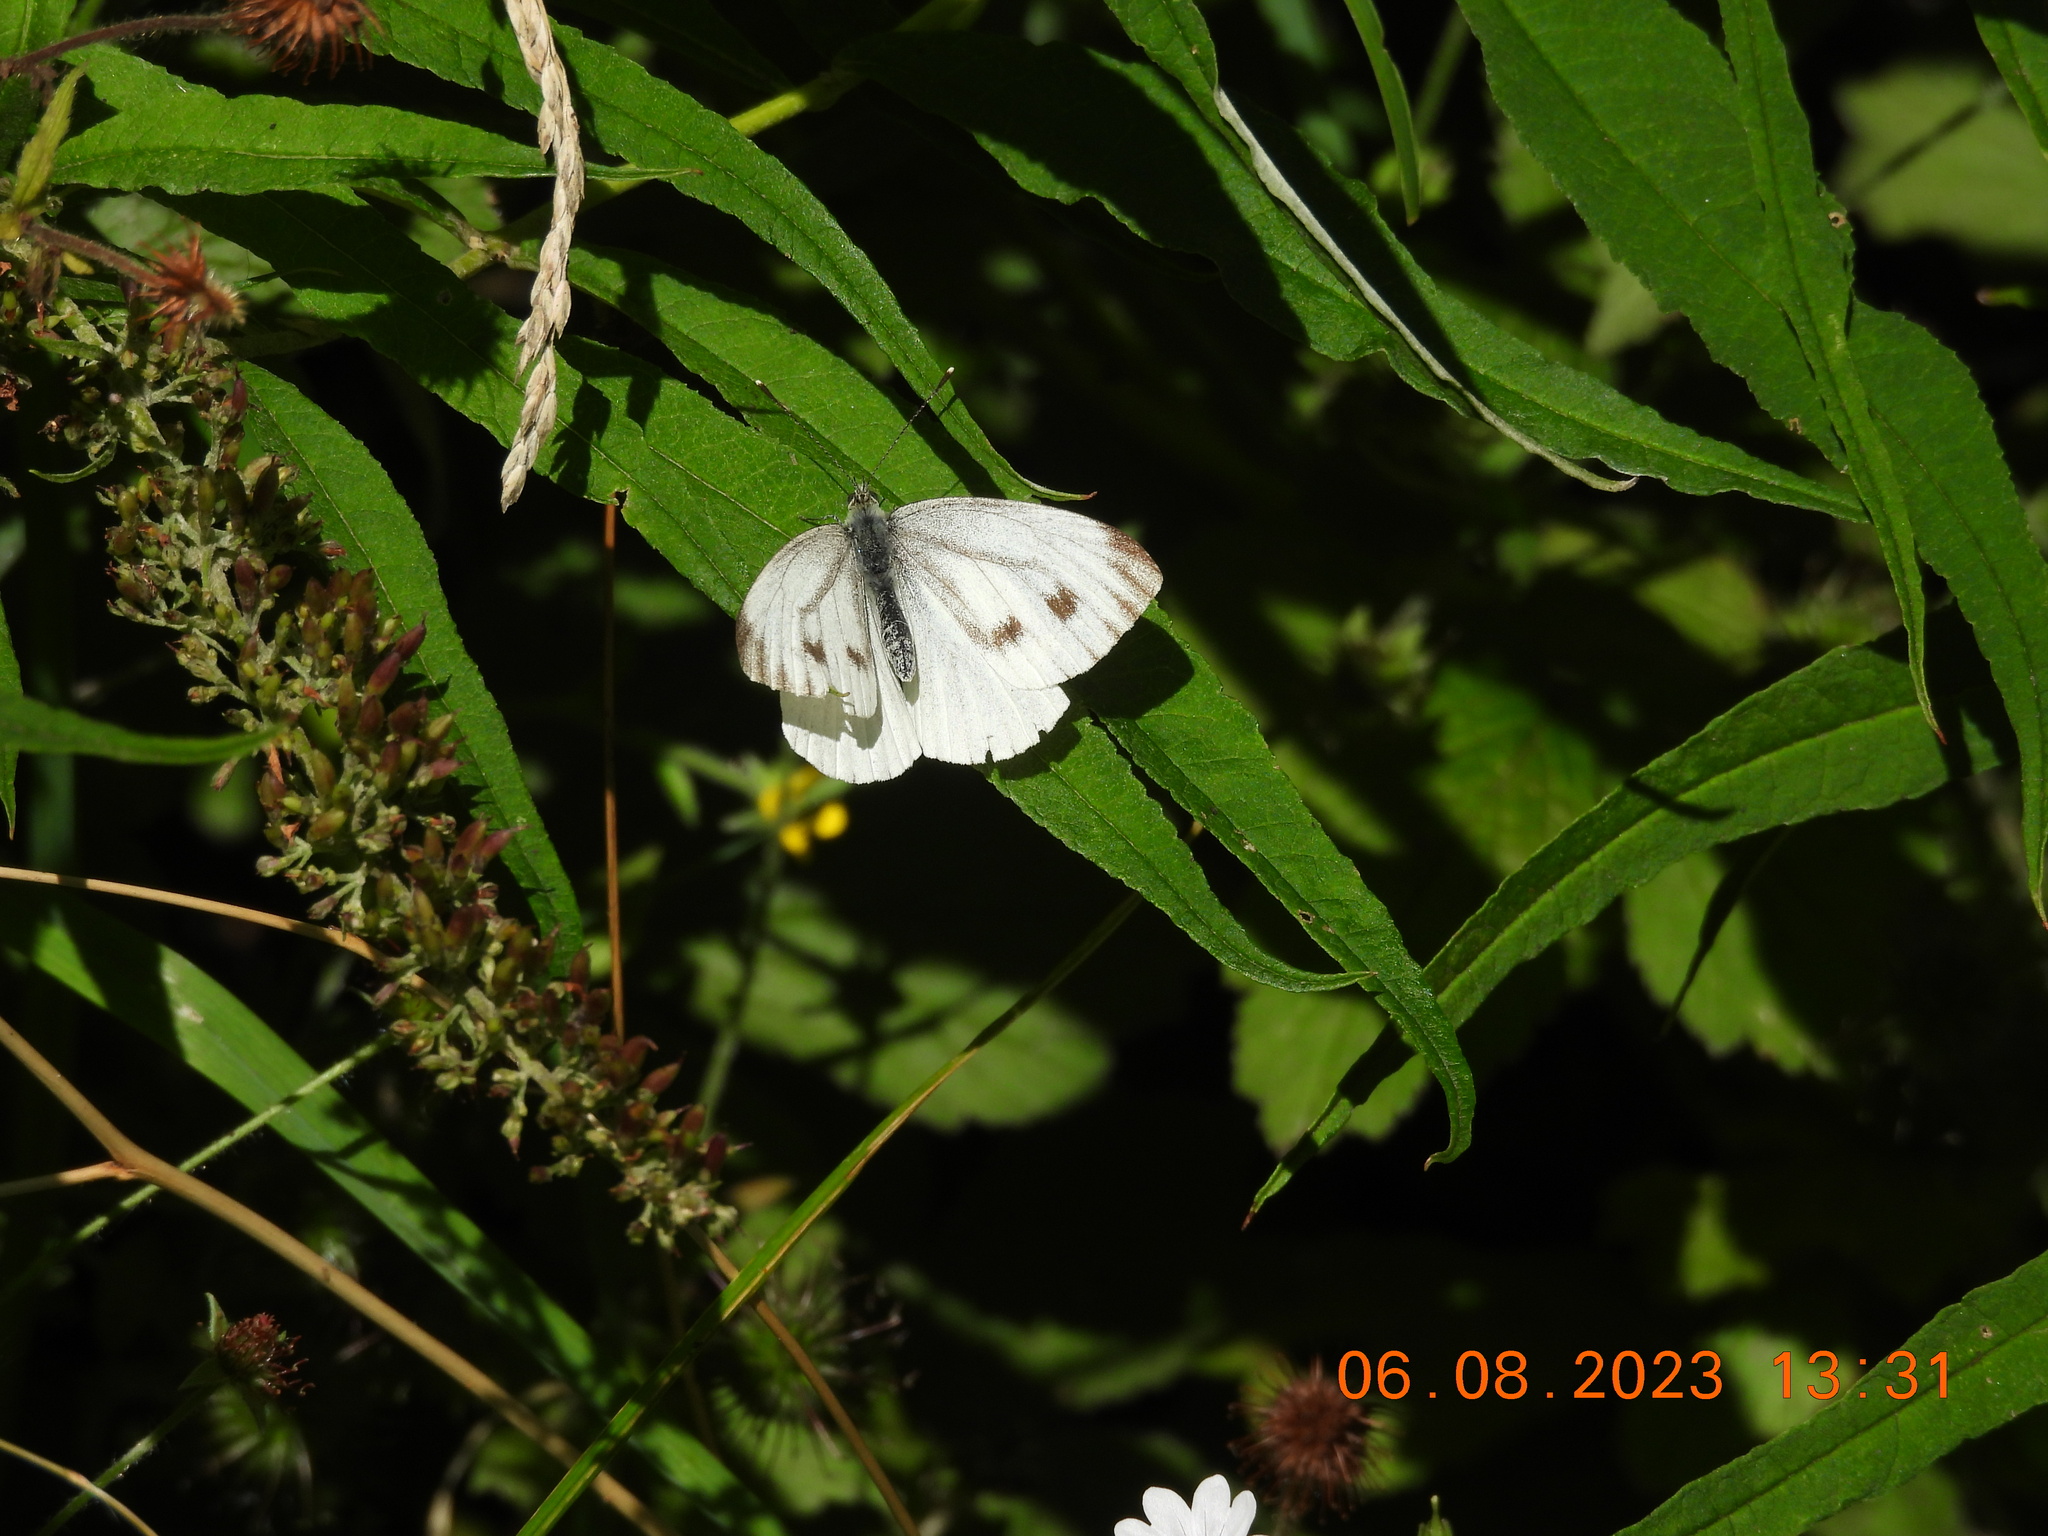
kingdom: Animalia
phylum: Arthropoda
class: Insecta
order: Lepidoptera
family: Pieridae
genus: Pieris
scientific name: Pieris napi
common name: Green-veined white
